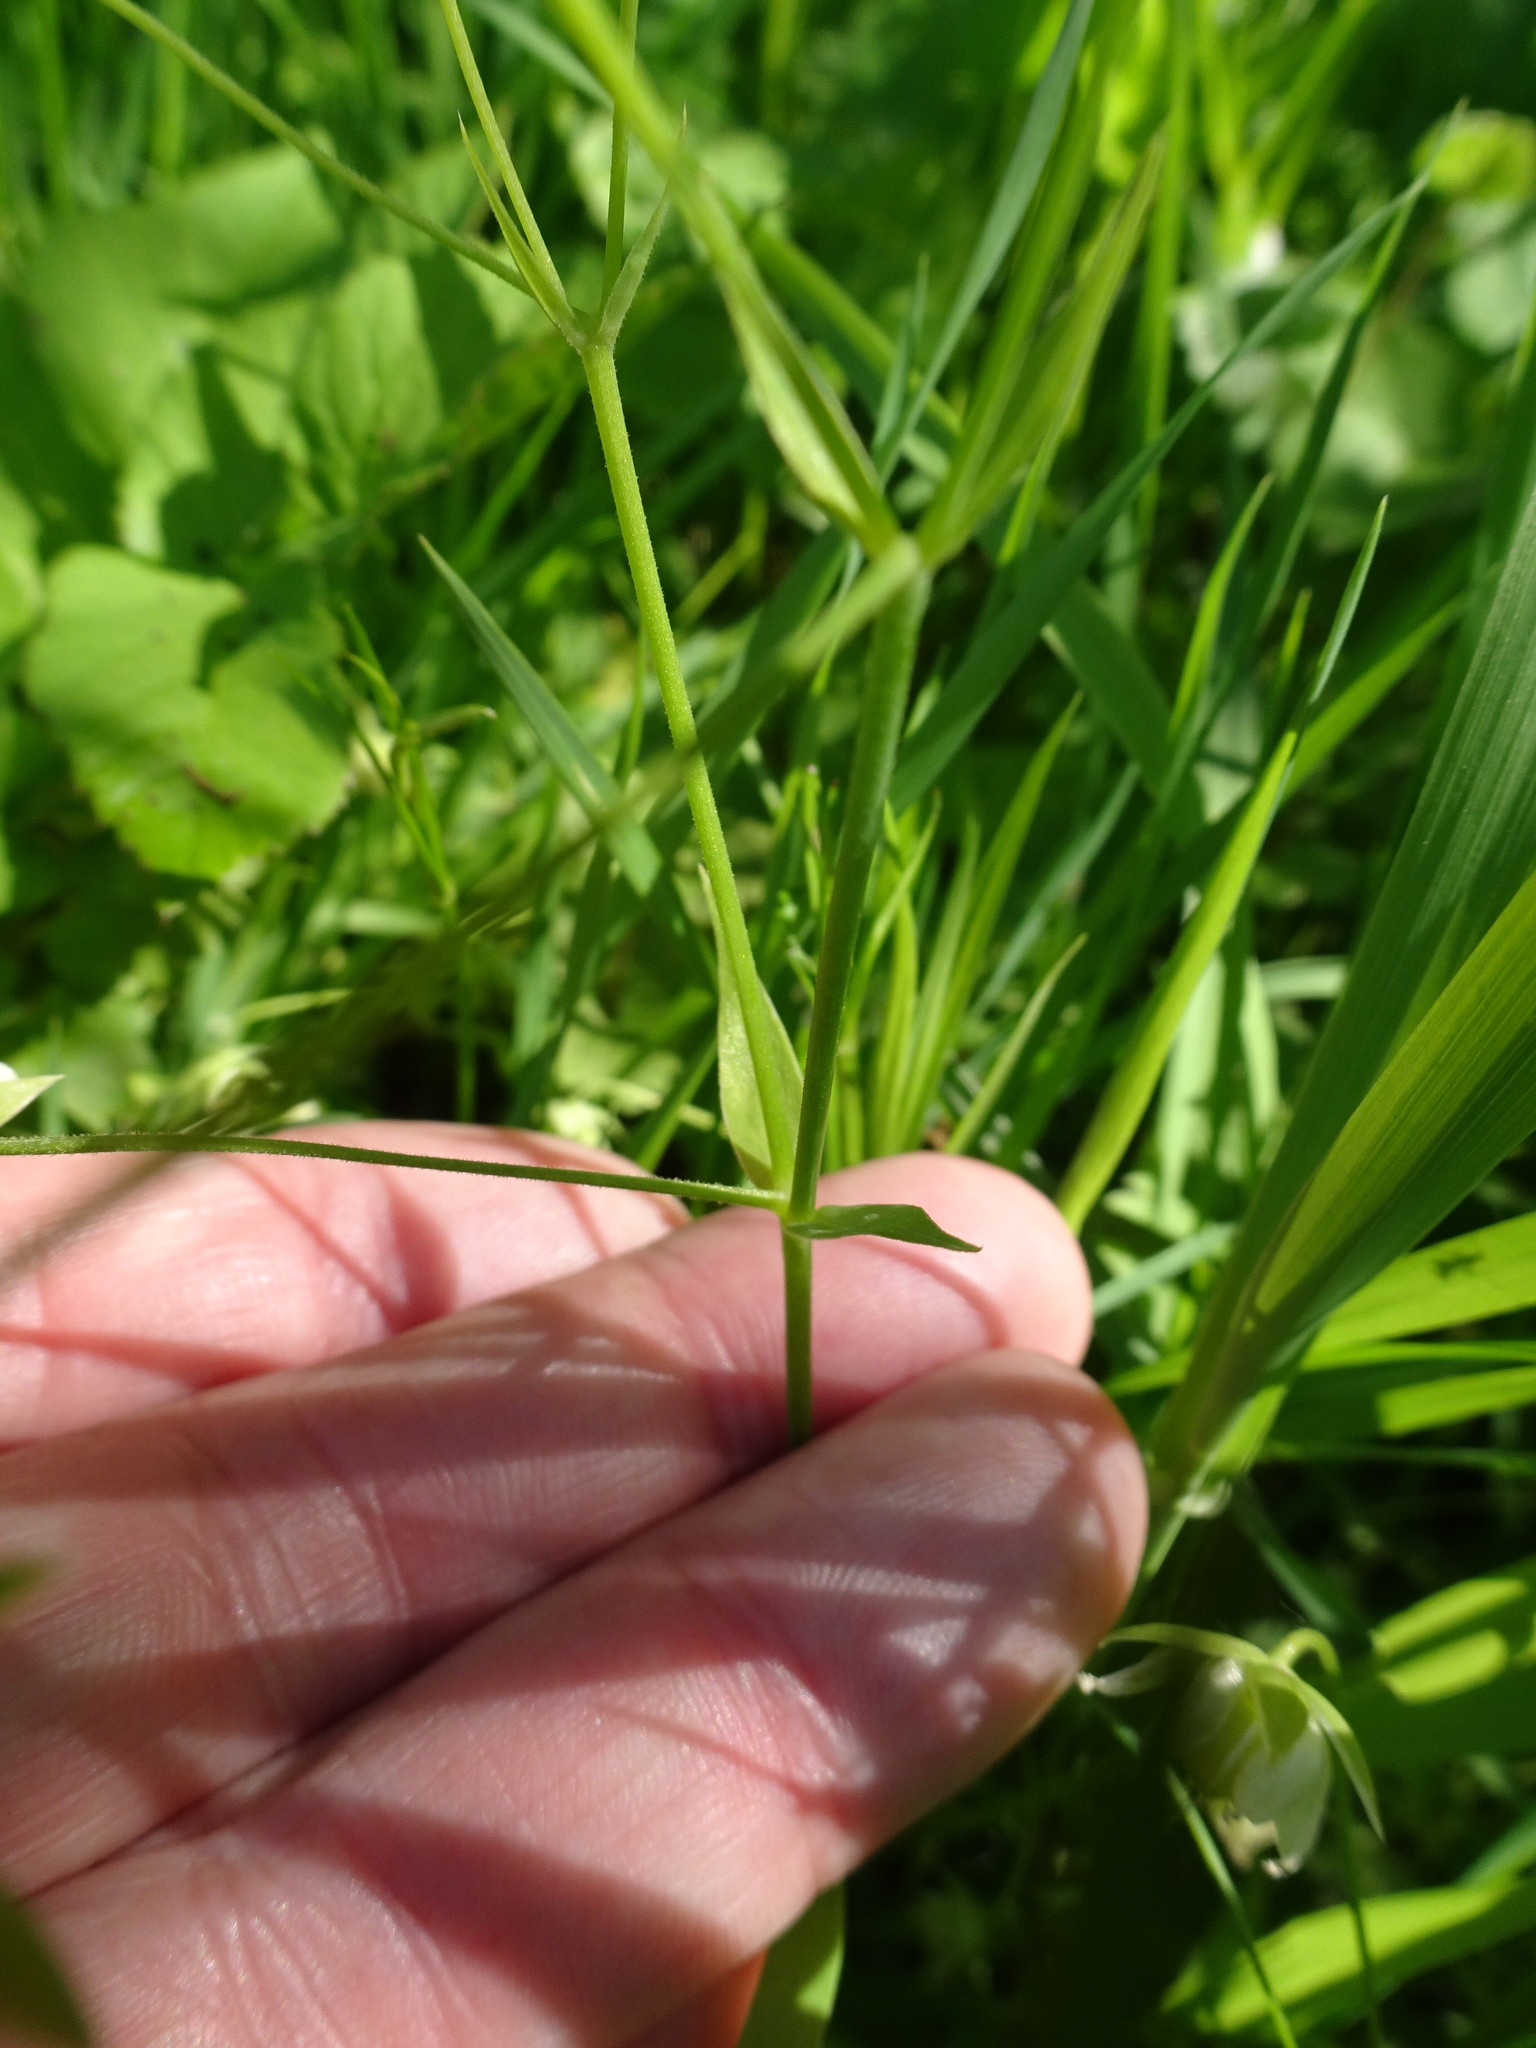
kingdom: Plantae
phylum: Tracheophyta
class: Magnoliopsida
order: Caryophyllales
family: Caryophyllaceae
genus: Rabelera
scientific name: Rabelera holostea
